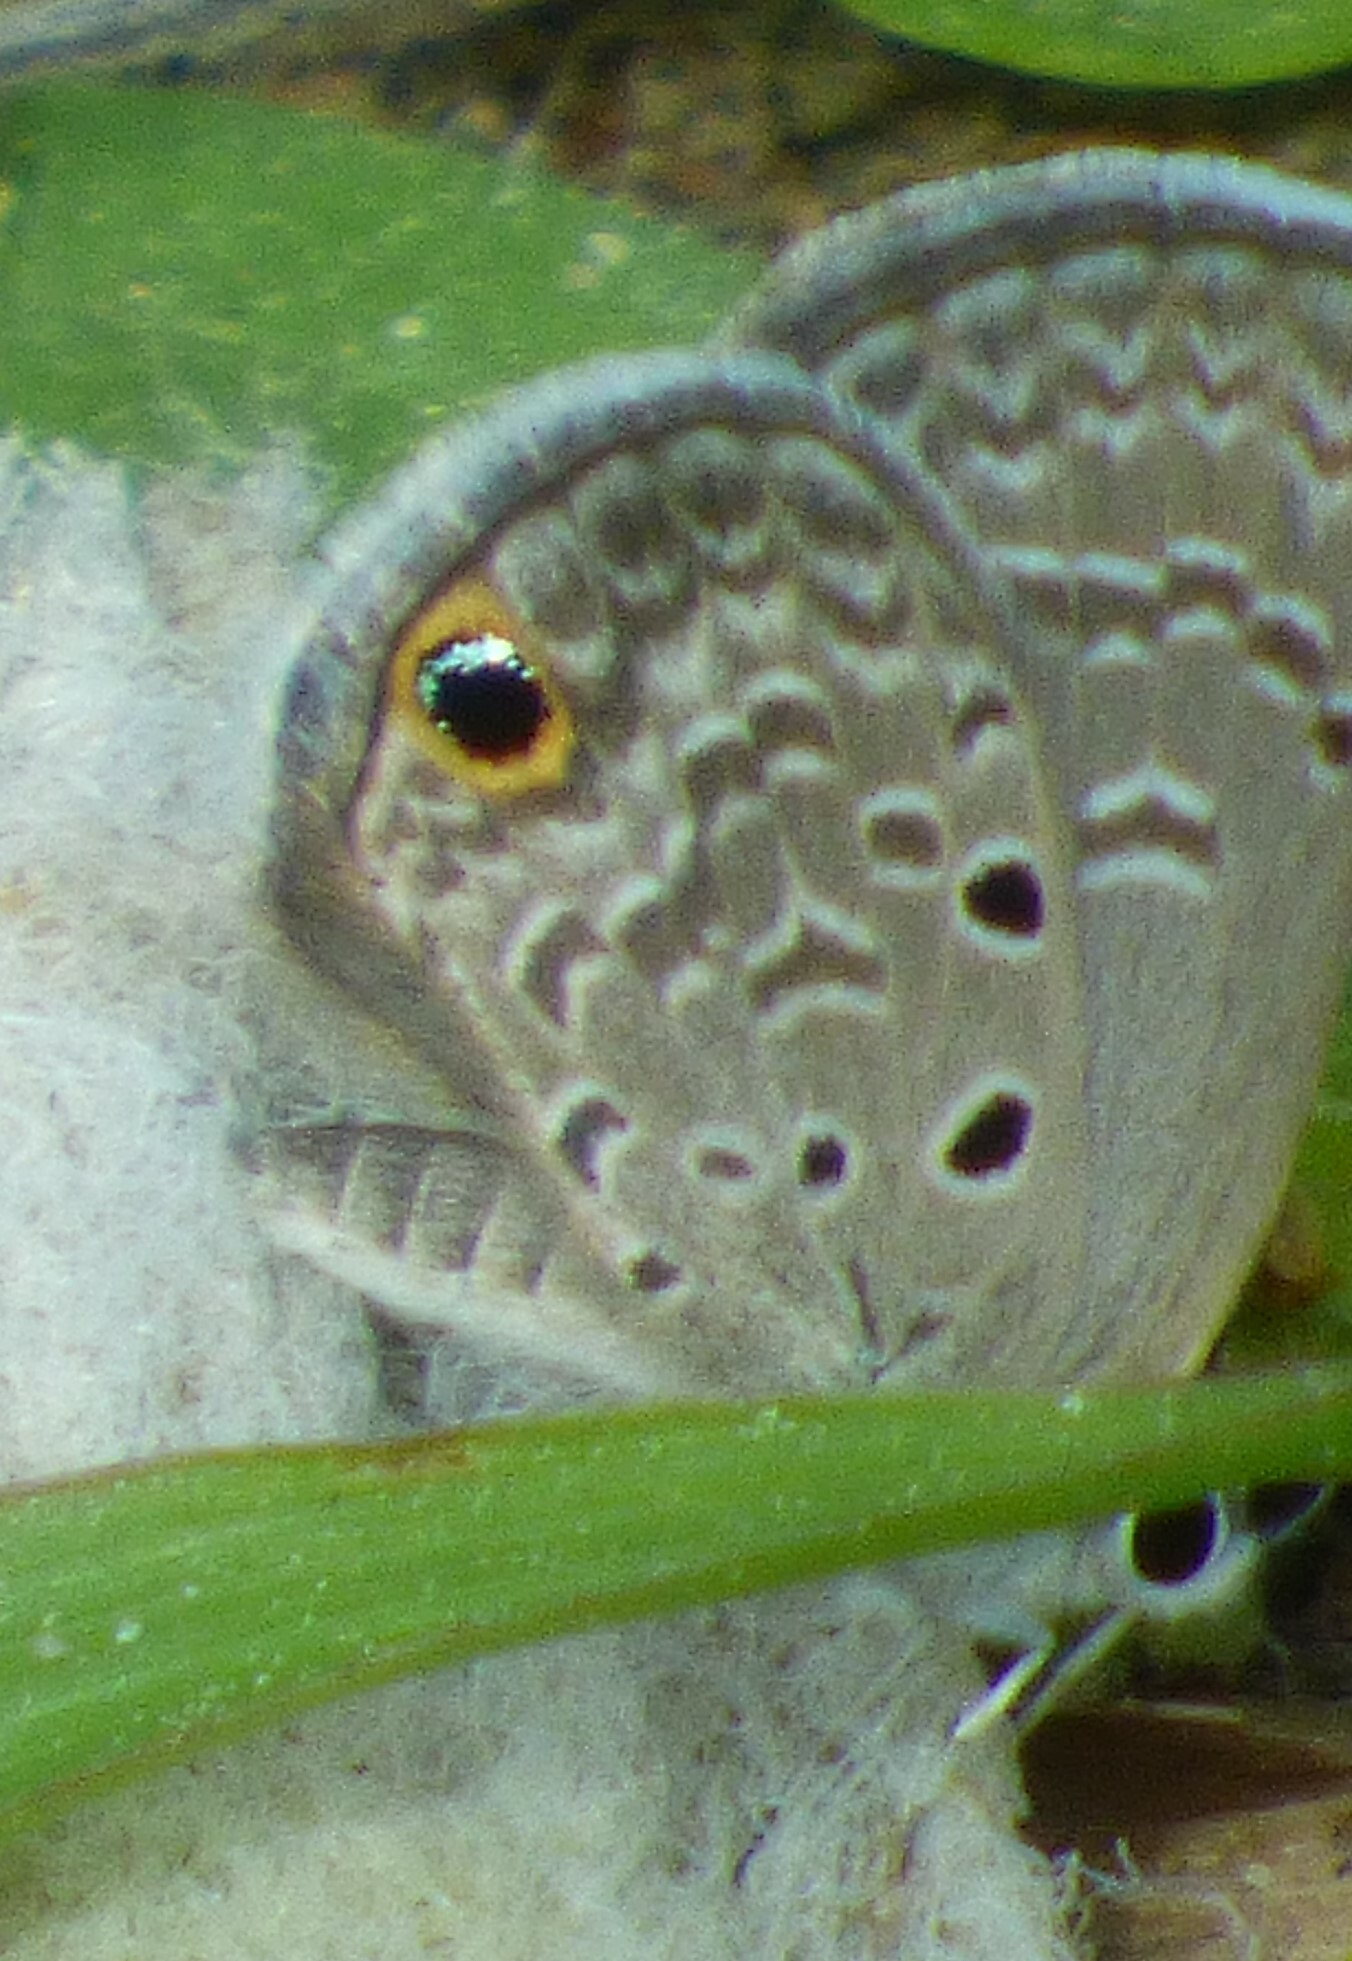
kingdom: Animalia
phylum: Arthropoda
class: Insecta
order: Lepidoptera
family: Lycaenidae
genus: Hemiargus
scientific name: Hemiargus ceraunus
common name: Ceraunus blue
